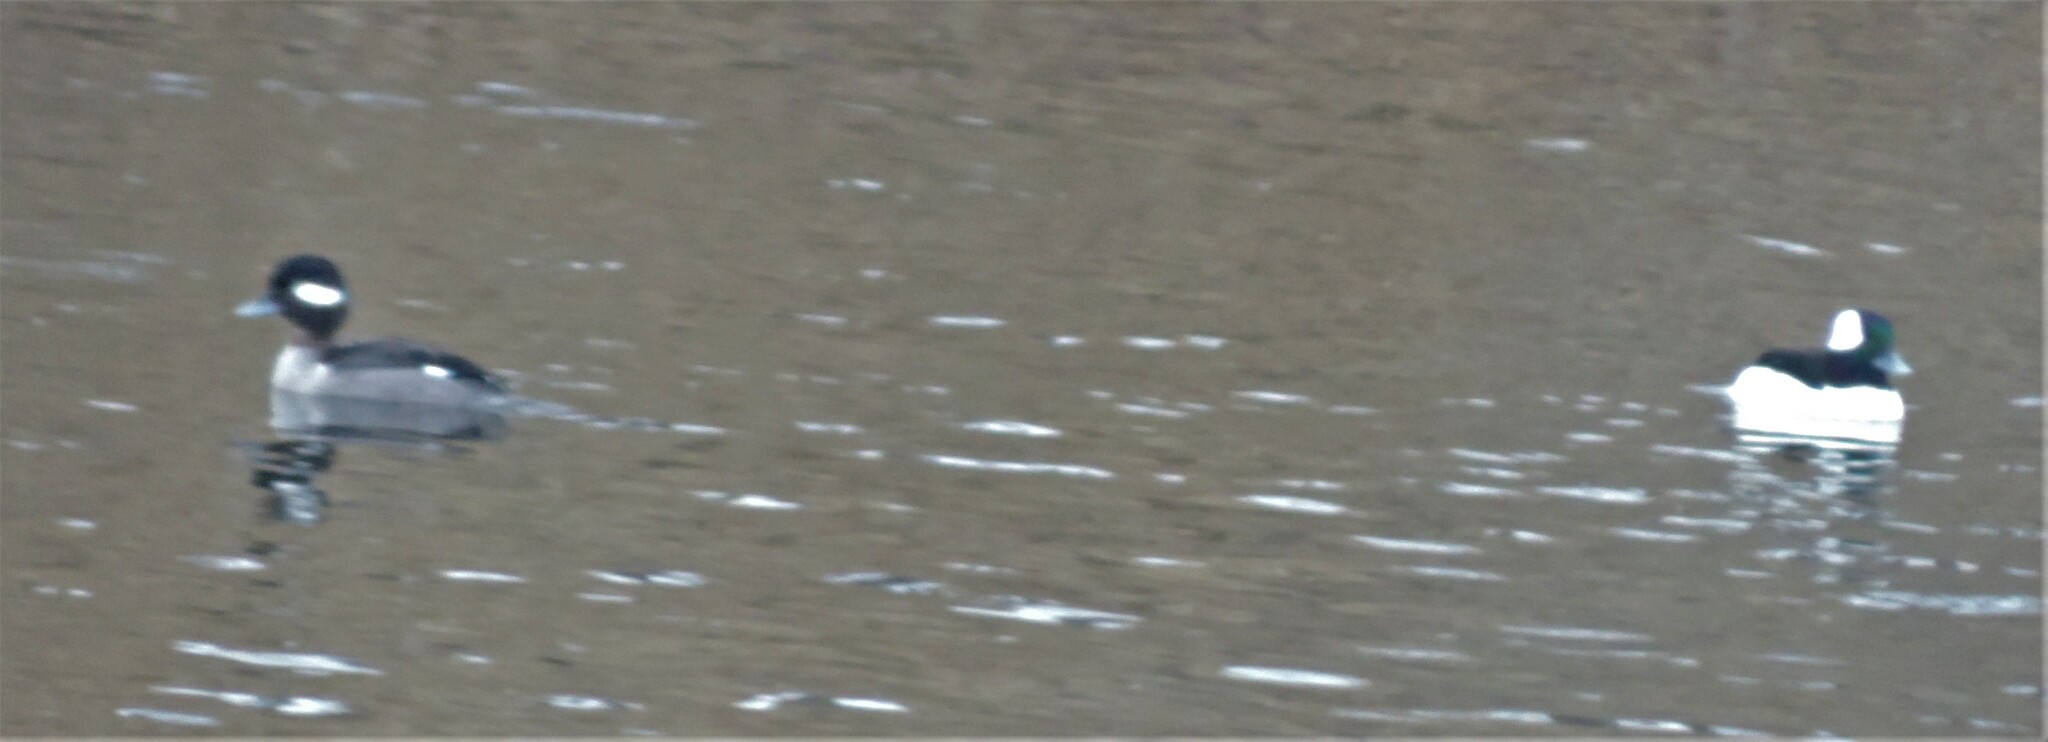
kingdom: Animalia
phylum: Chordata
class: Aves
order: Anseriformes
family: Anatidae
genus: Bucephala
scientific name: Bucephala albeola
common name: Bufflehead
